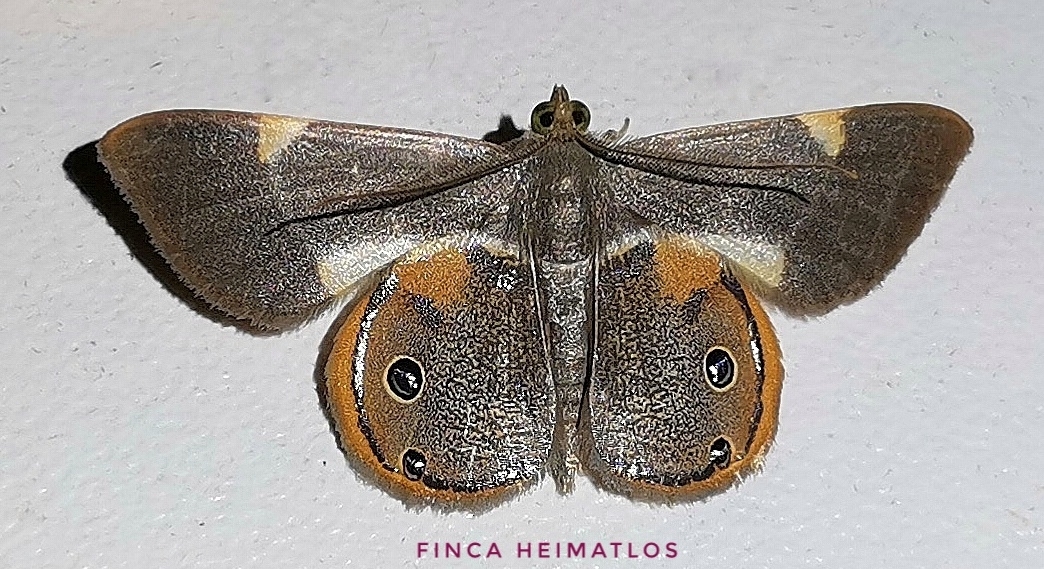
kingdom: Animalia
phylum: Arthropoda
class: Insecta
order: Lepidoptera
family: Geometridae
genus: Opisthoxia
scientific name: Opisthoxia haemon
